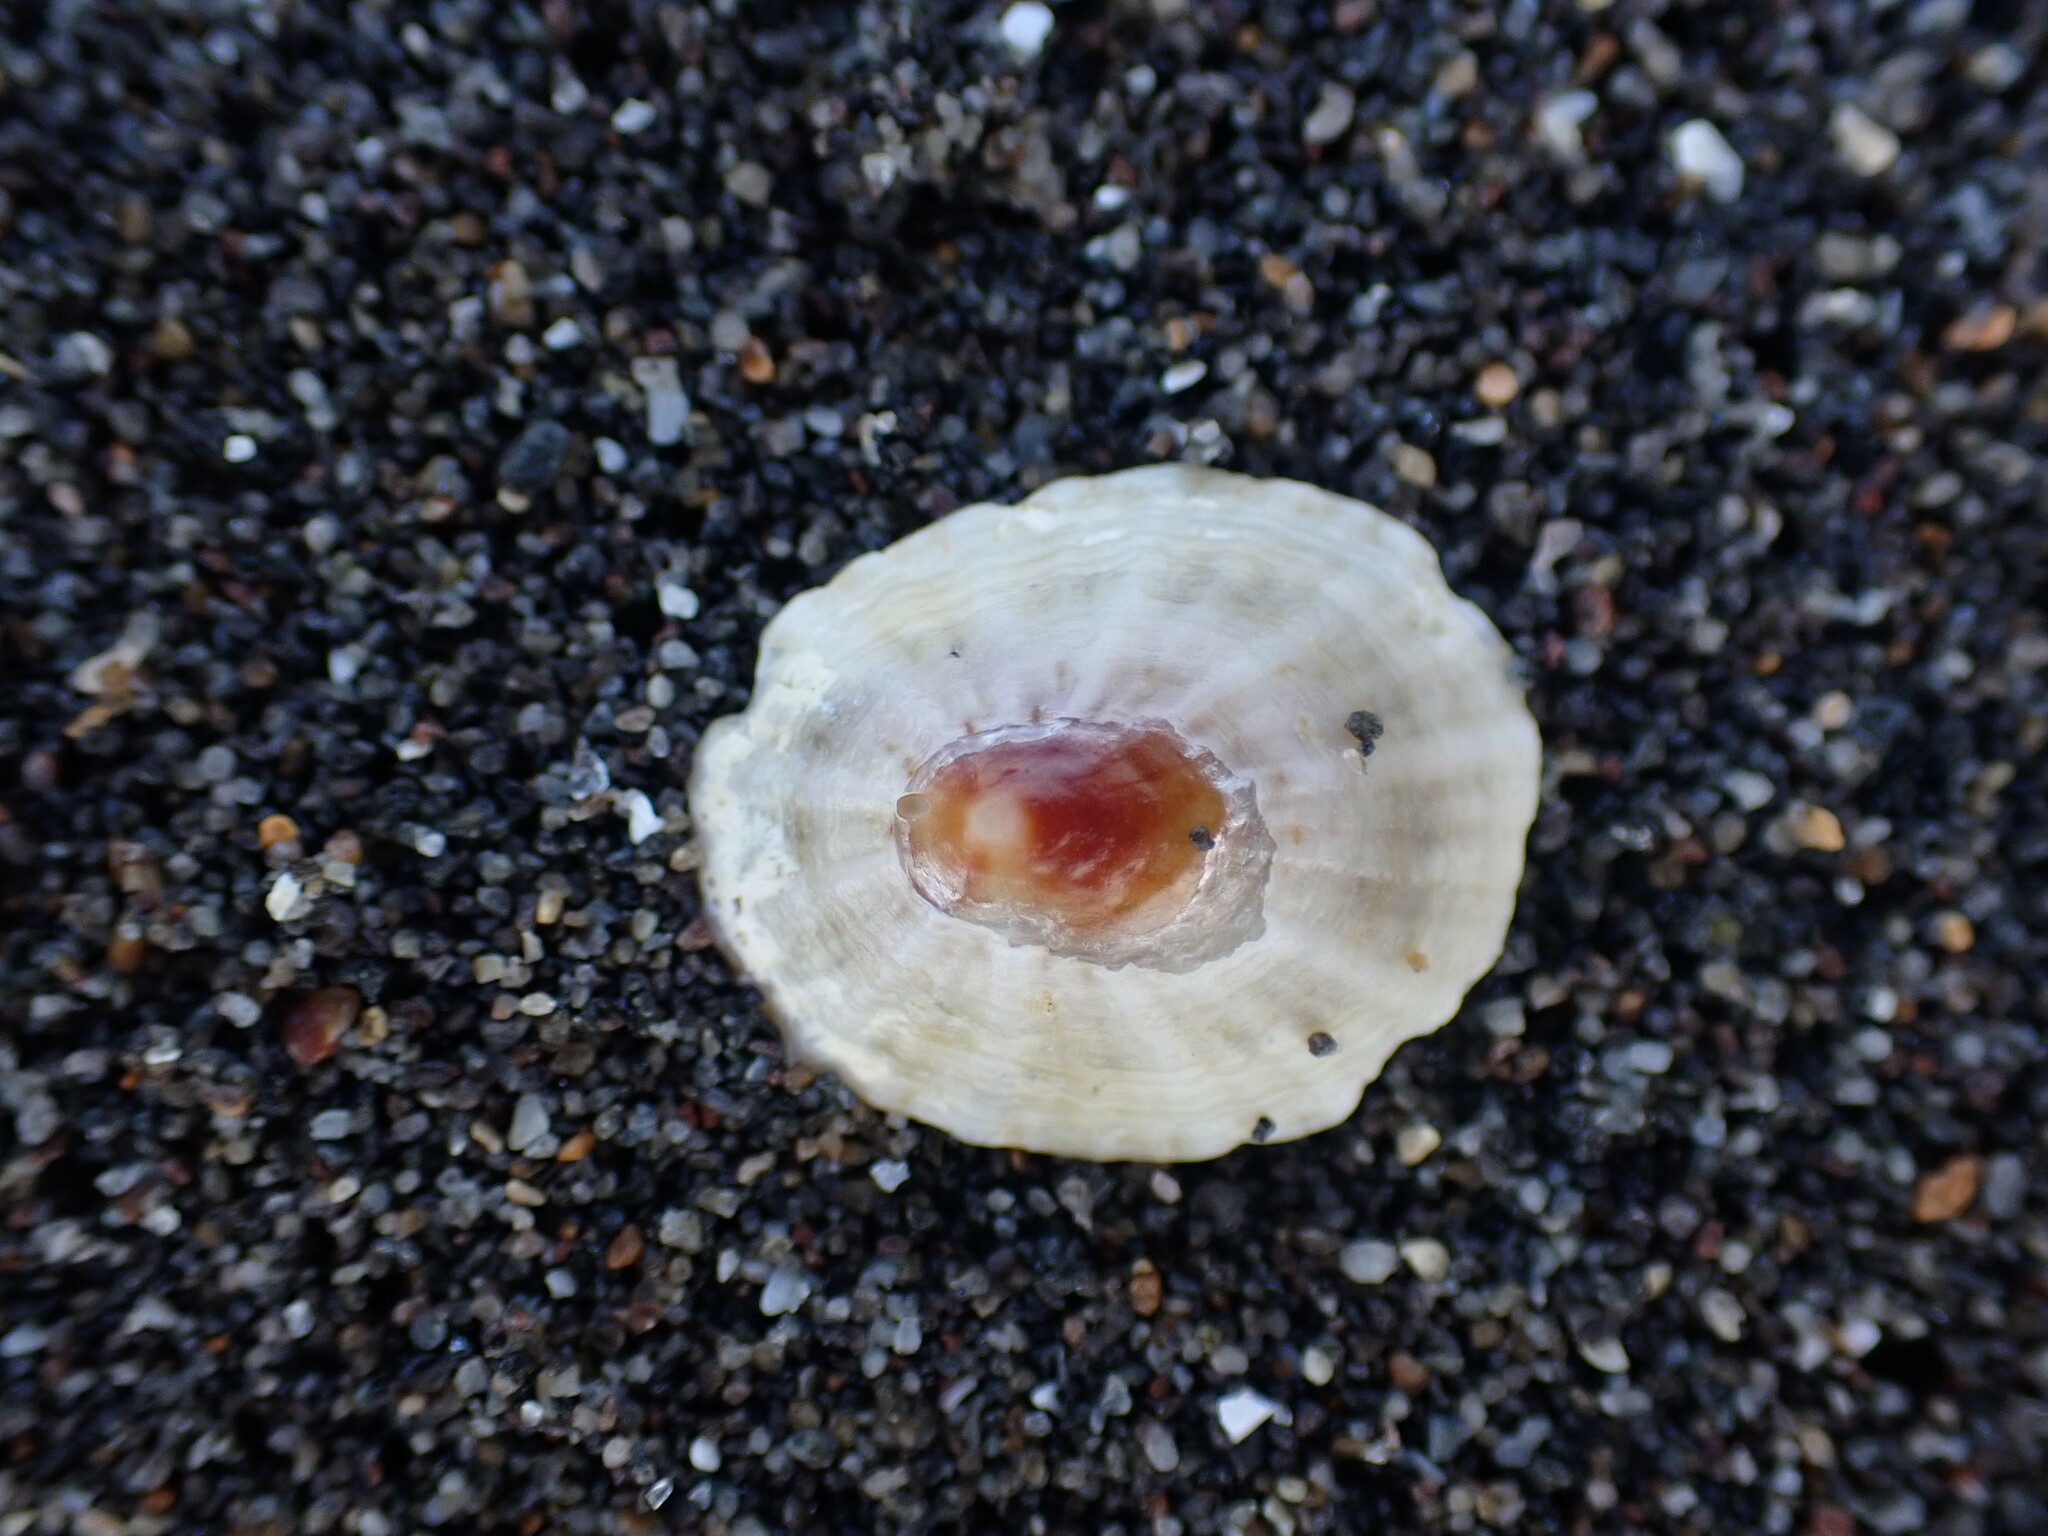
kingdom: Animalia
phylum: Mollusca
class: Gastropoda
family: Nacellidae
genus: Cellana
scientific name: Cellana stellifera
